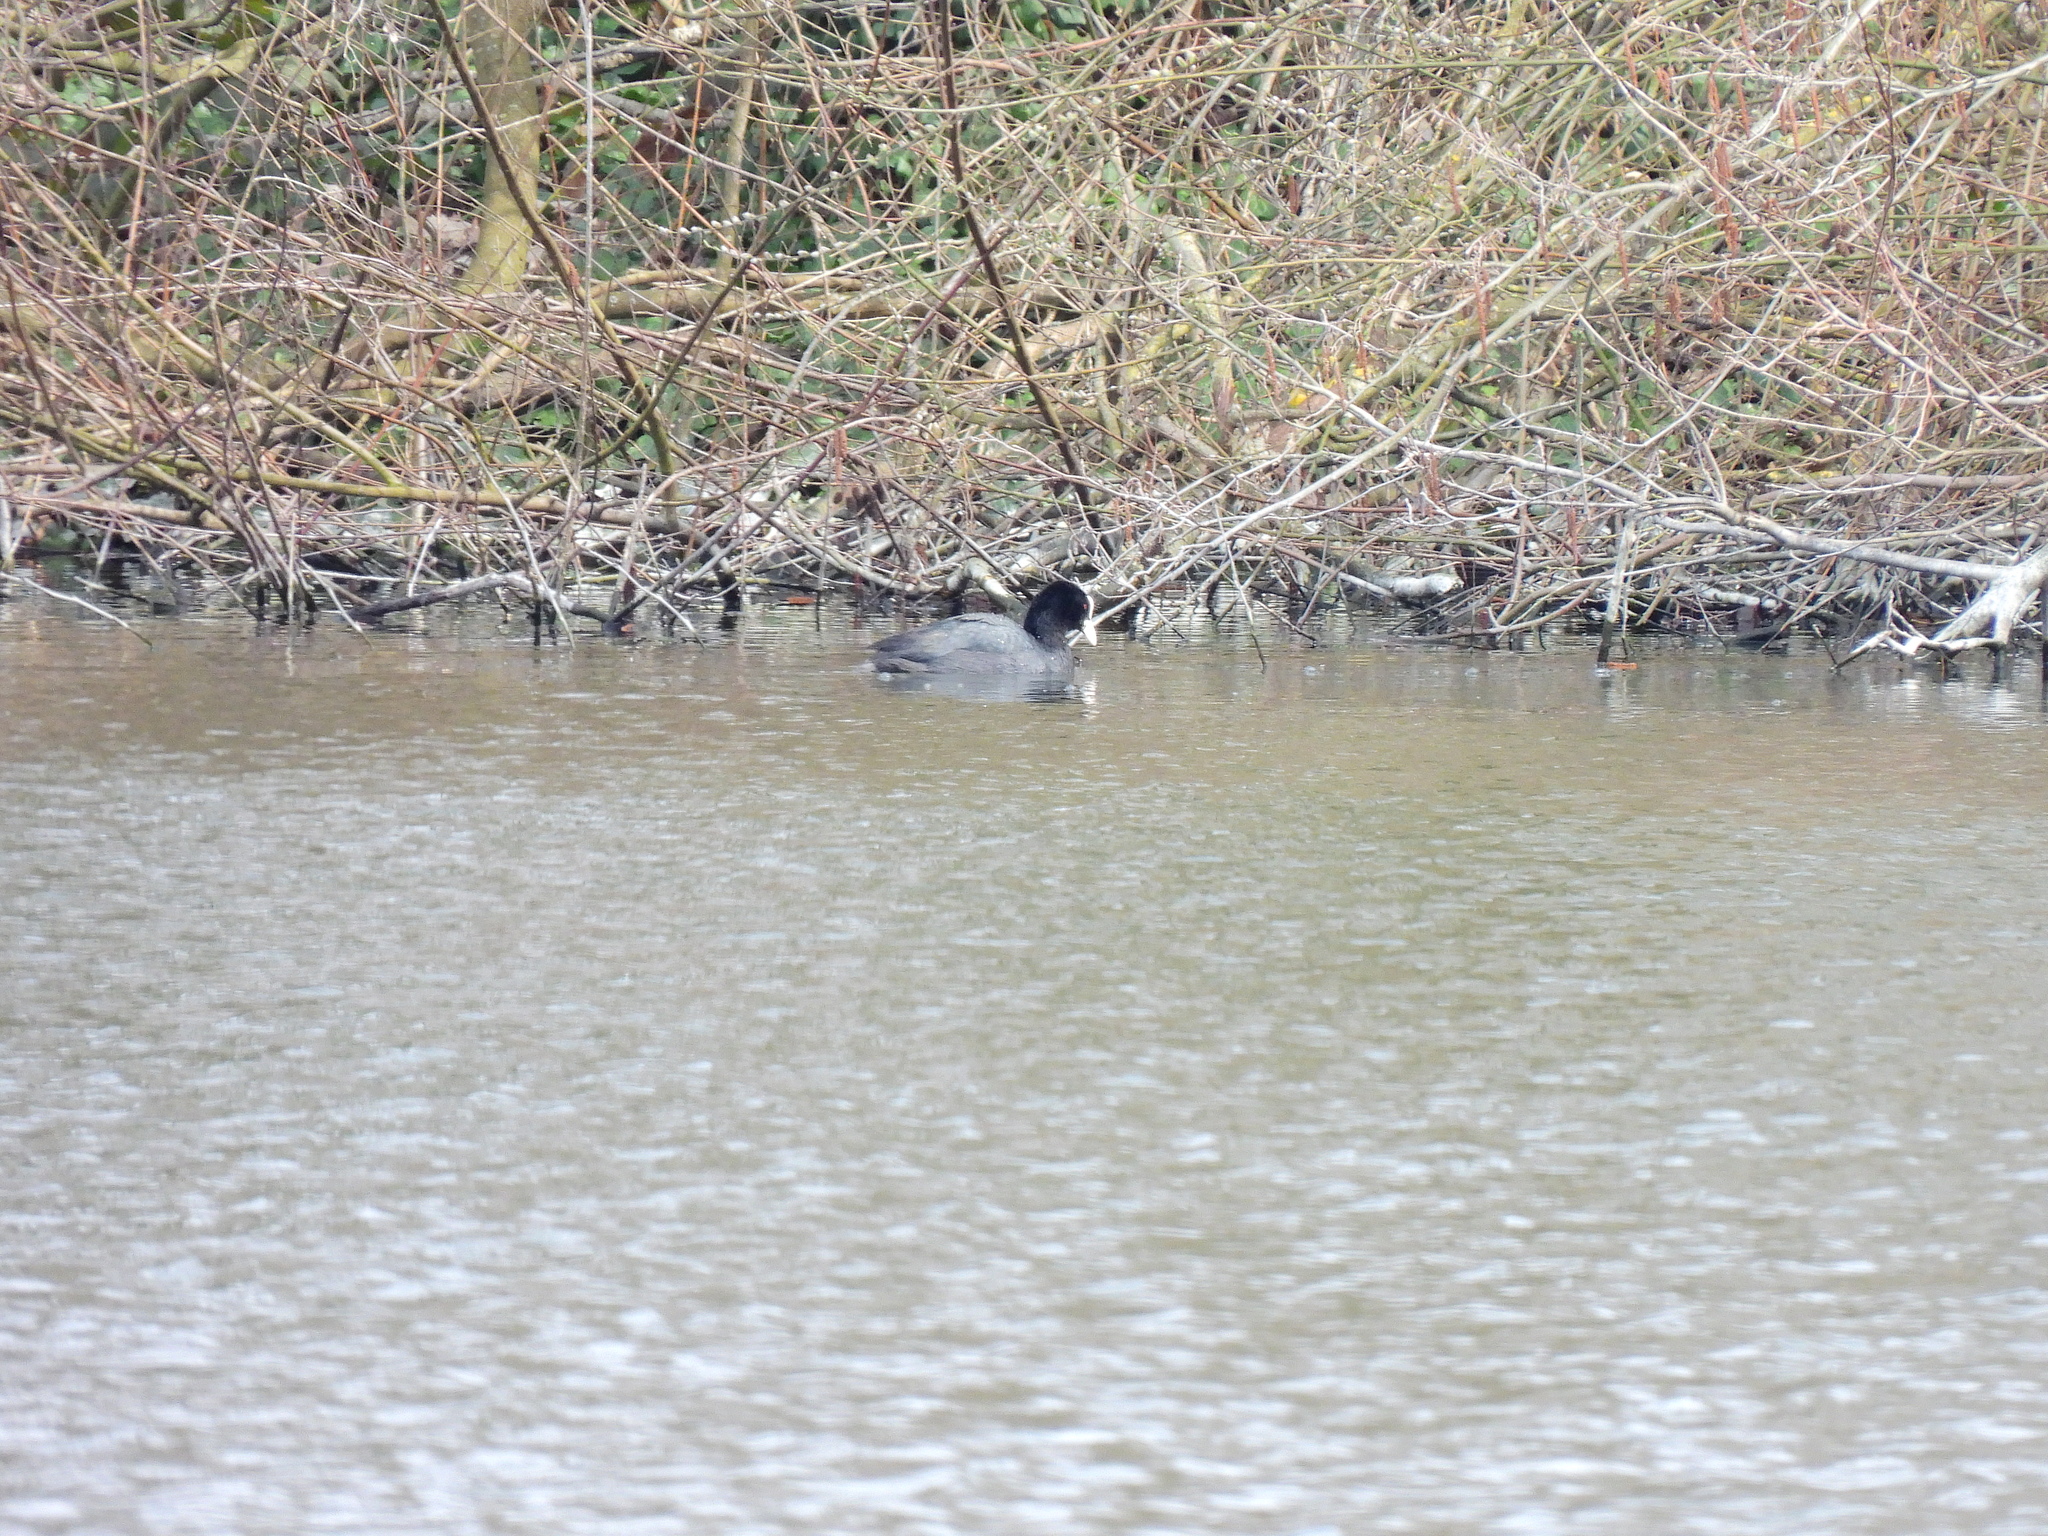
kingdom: Animalia
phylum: Chordata
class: Aves
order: Gruiformes
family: Rallidae
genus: Fulica
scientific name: Fulica atra
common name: Eurasian coot
